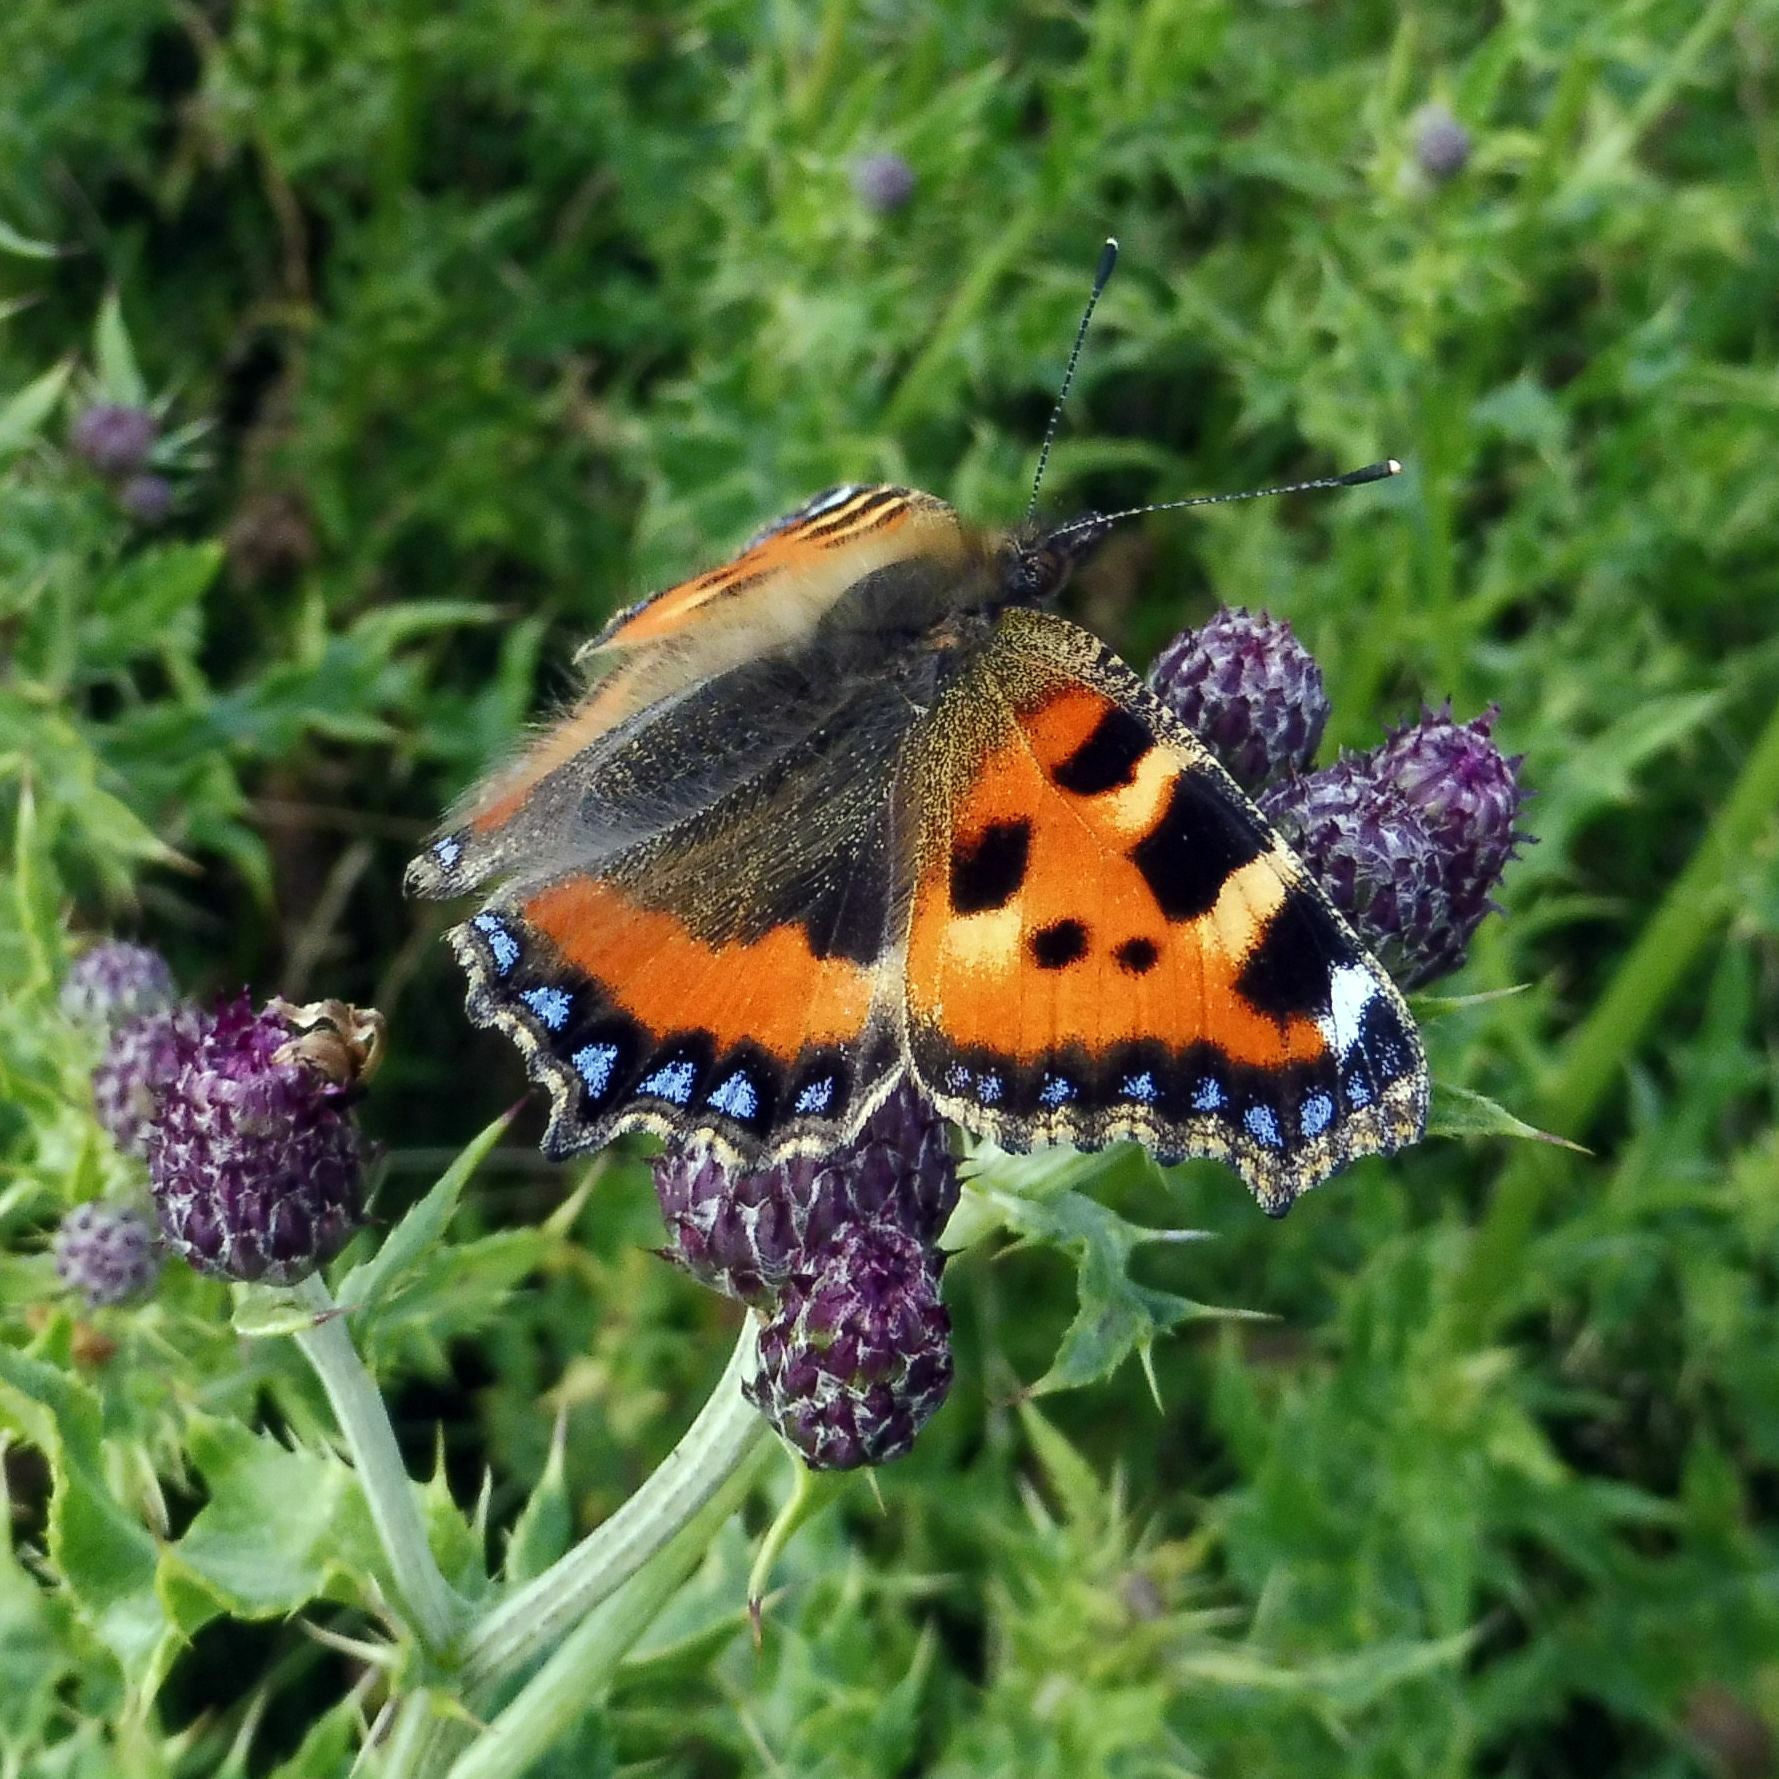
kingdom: Animalia
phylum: Arthropoda
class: Insecta
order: Lepidoptera
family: Nymphalidae
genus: Aglais
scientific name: Aglais urticae
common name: Small tortoiseshell
